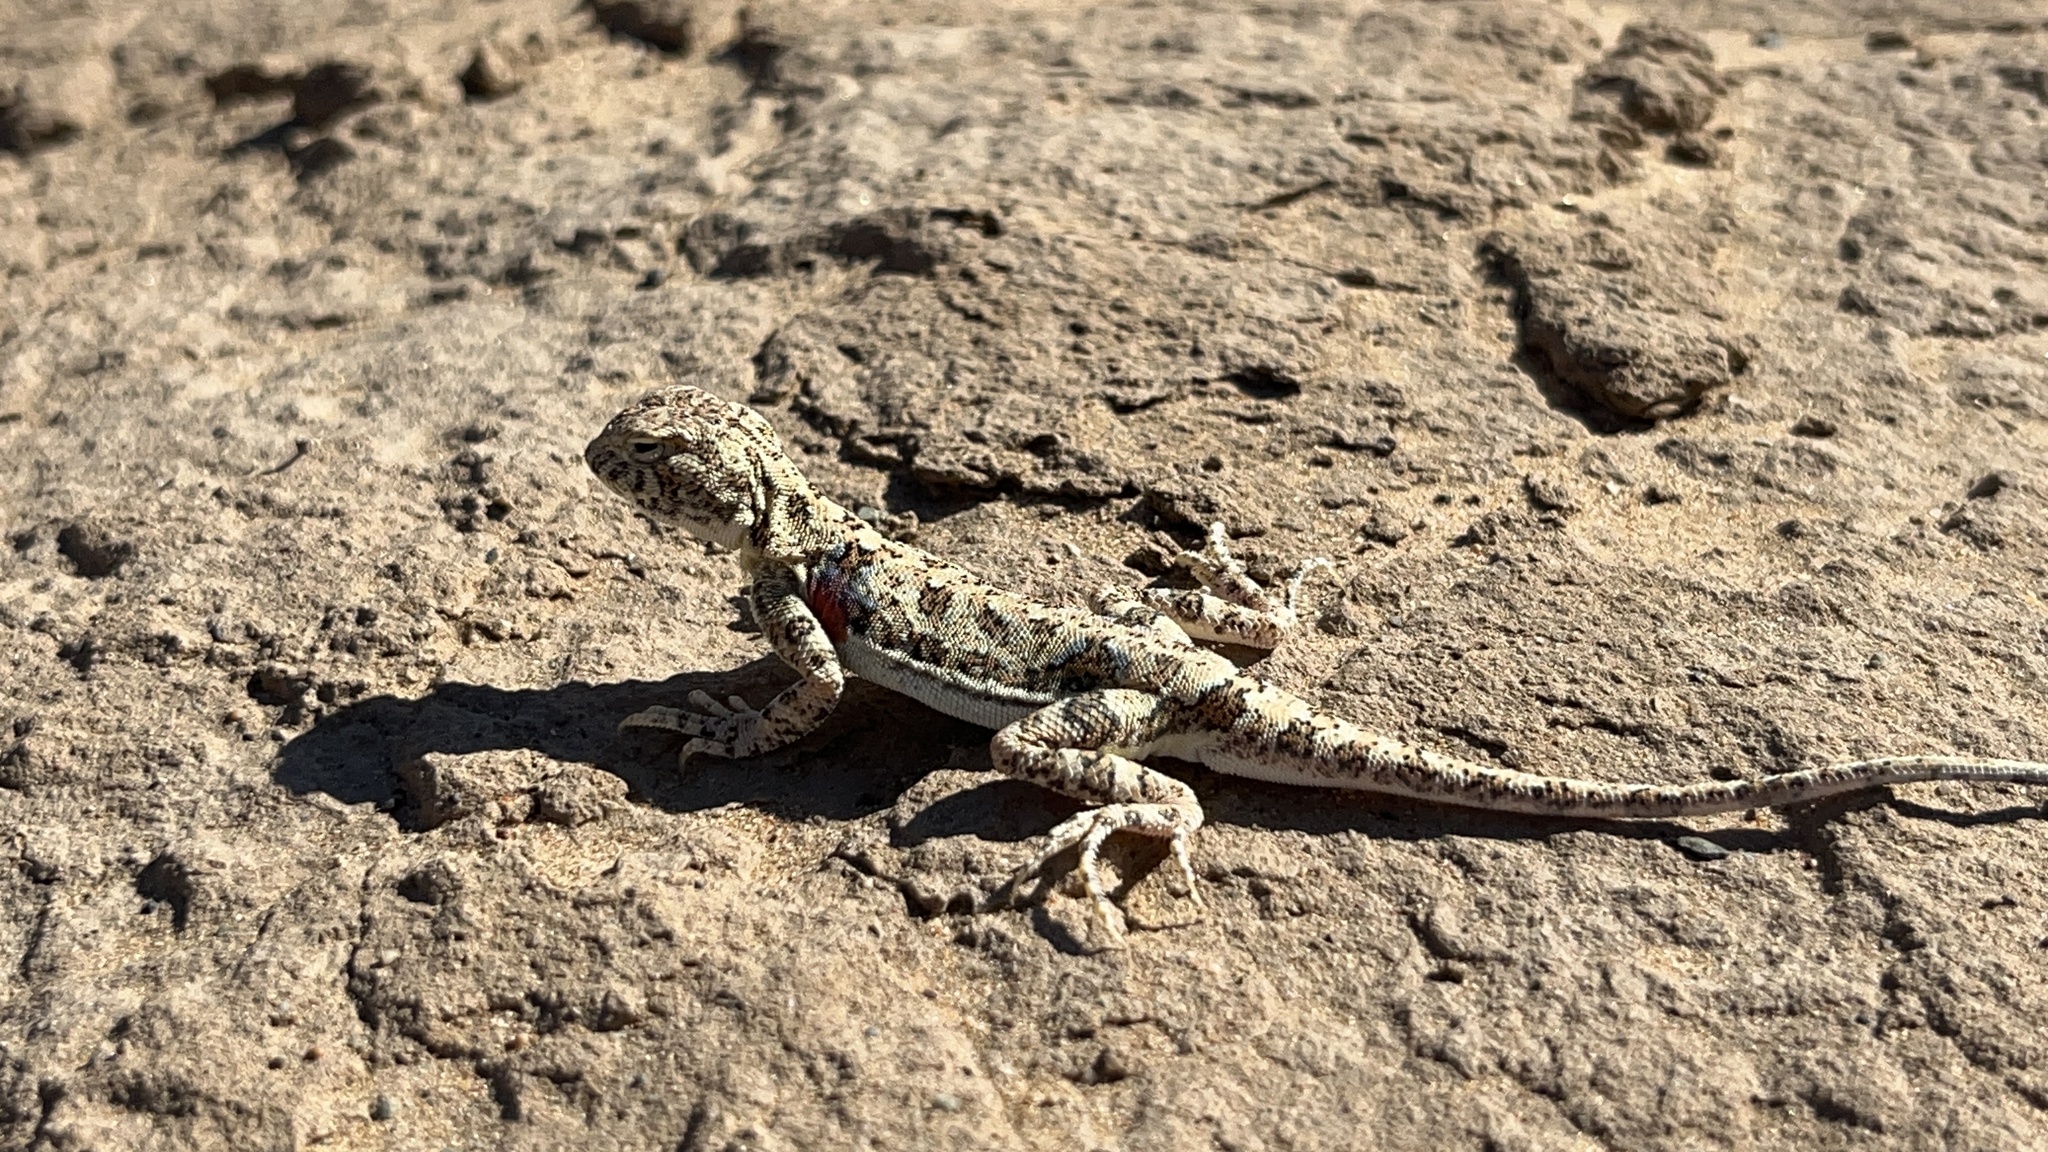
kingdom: Animalia
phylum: Chordata
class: Squamata
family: Agamidae
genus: Phrynocephalus
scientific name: Phrynocephalus versicolor
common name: Tuvan toad-headed agama
